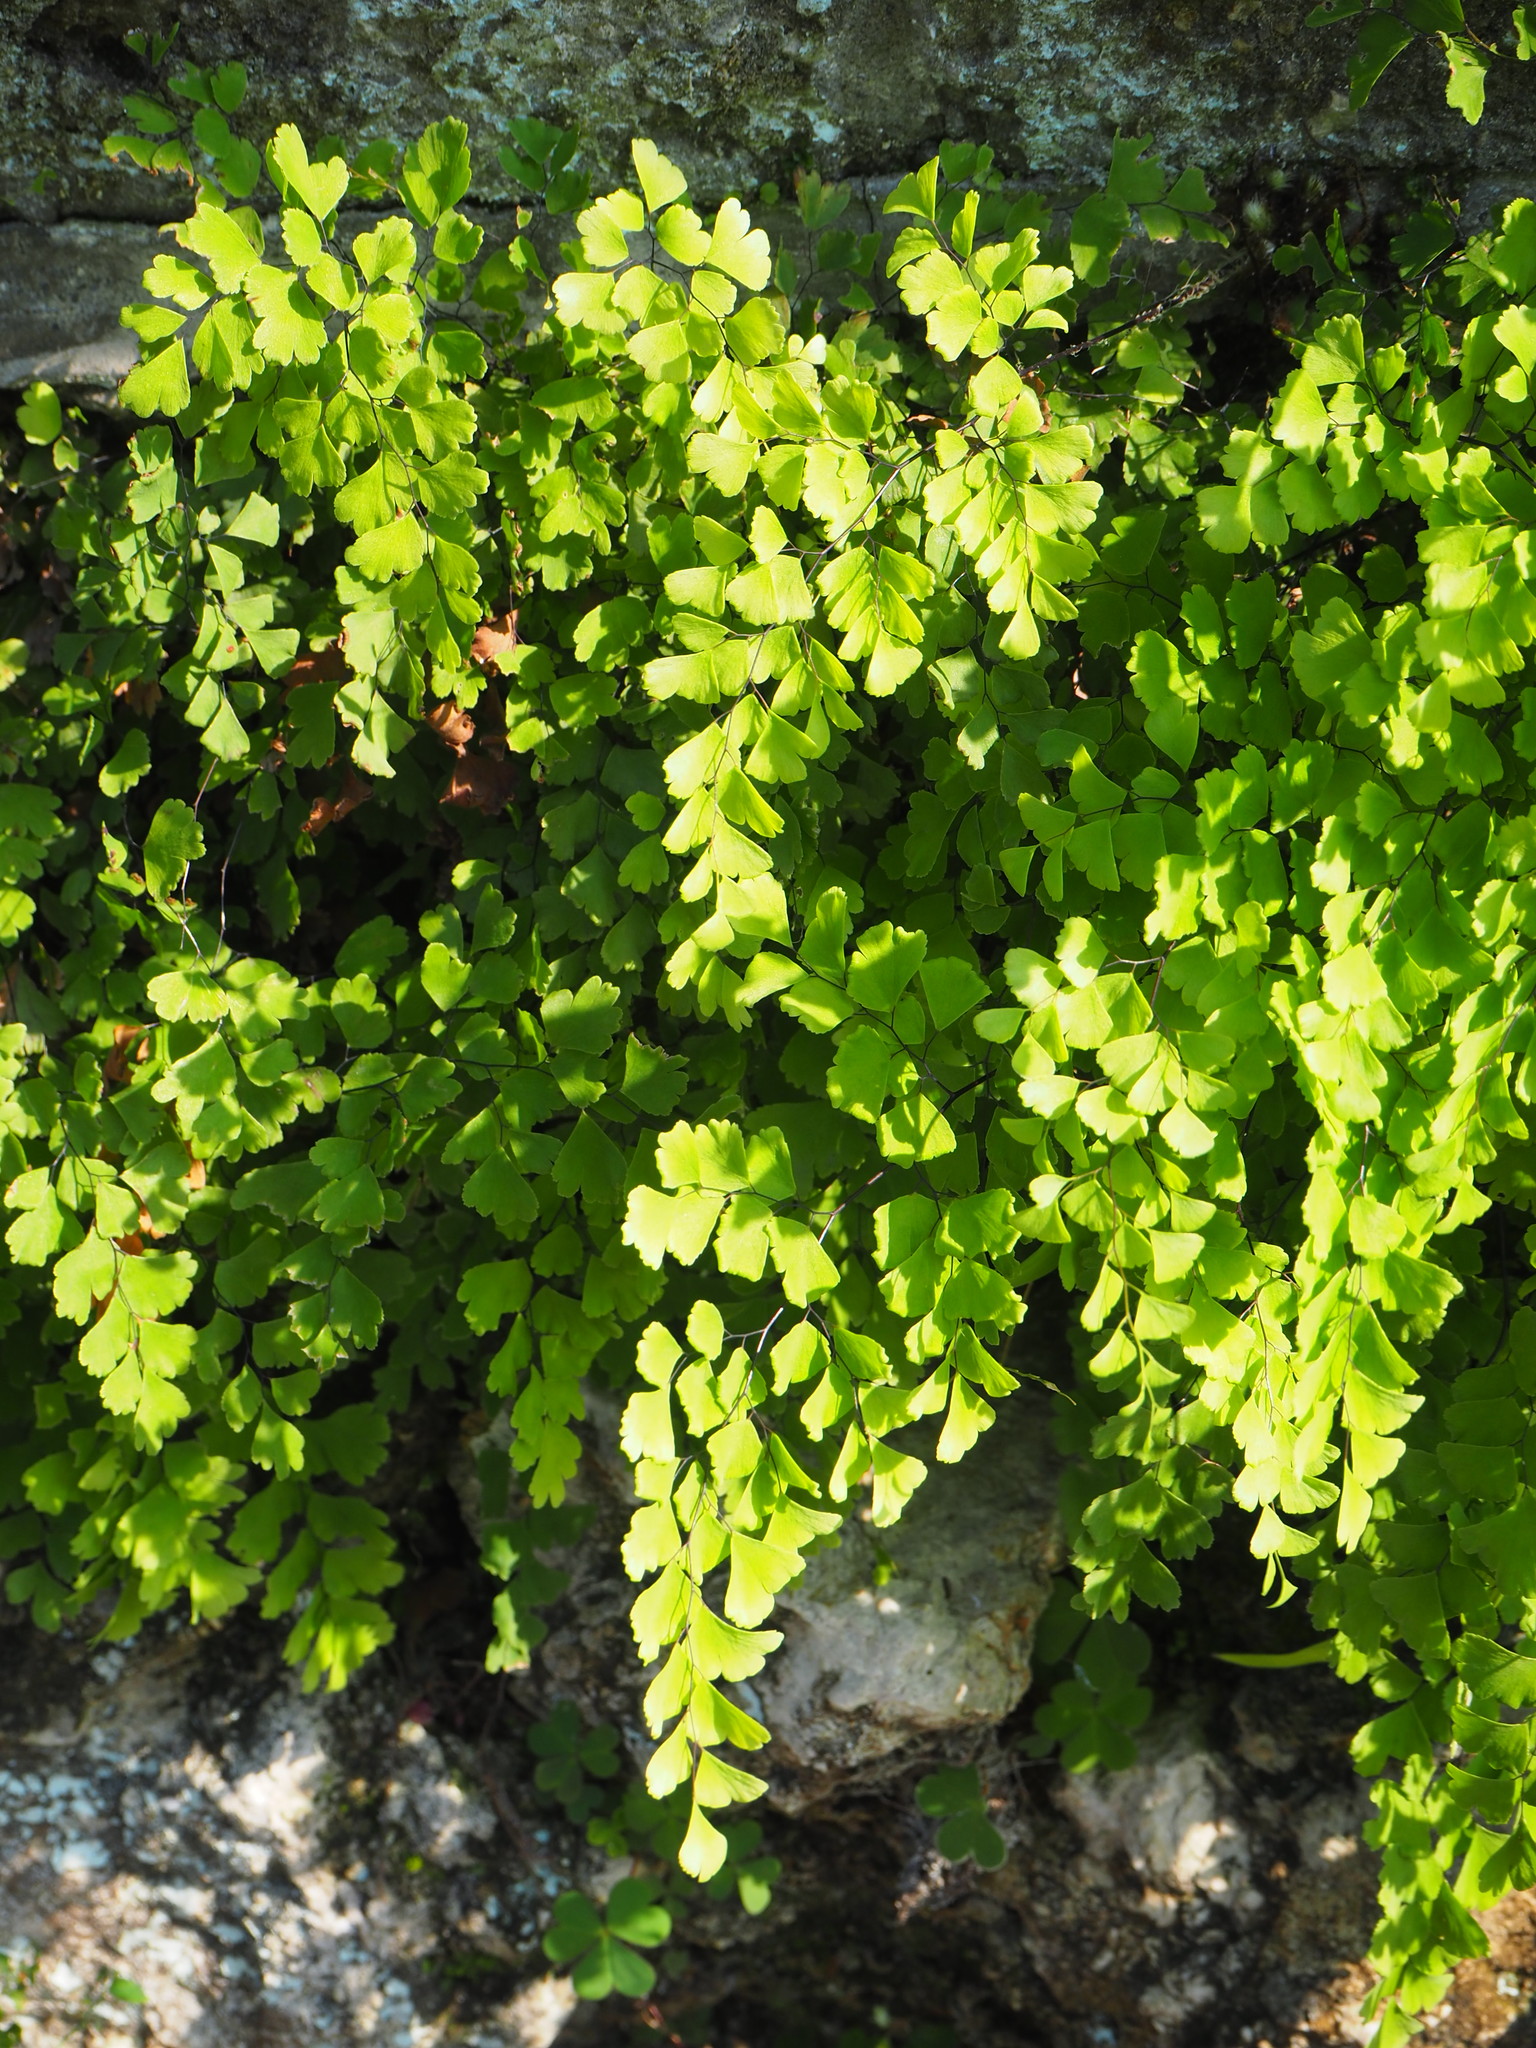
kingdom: Plantae
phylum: Tracheophyta
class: Polypodiopsida
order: Polypodiales
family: Pteridaceae
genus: Adiantum
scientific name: Adiantum capillus-veneris
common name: Maidenhair fern
